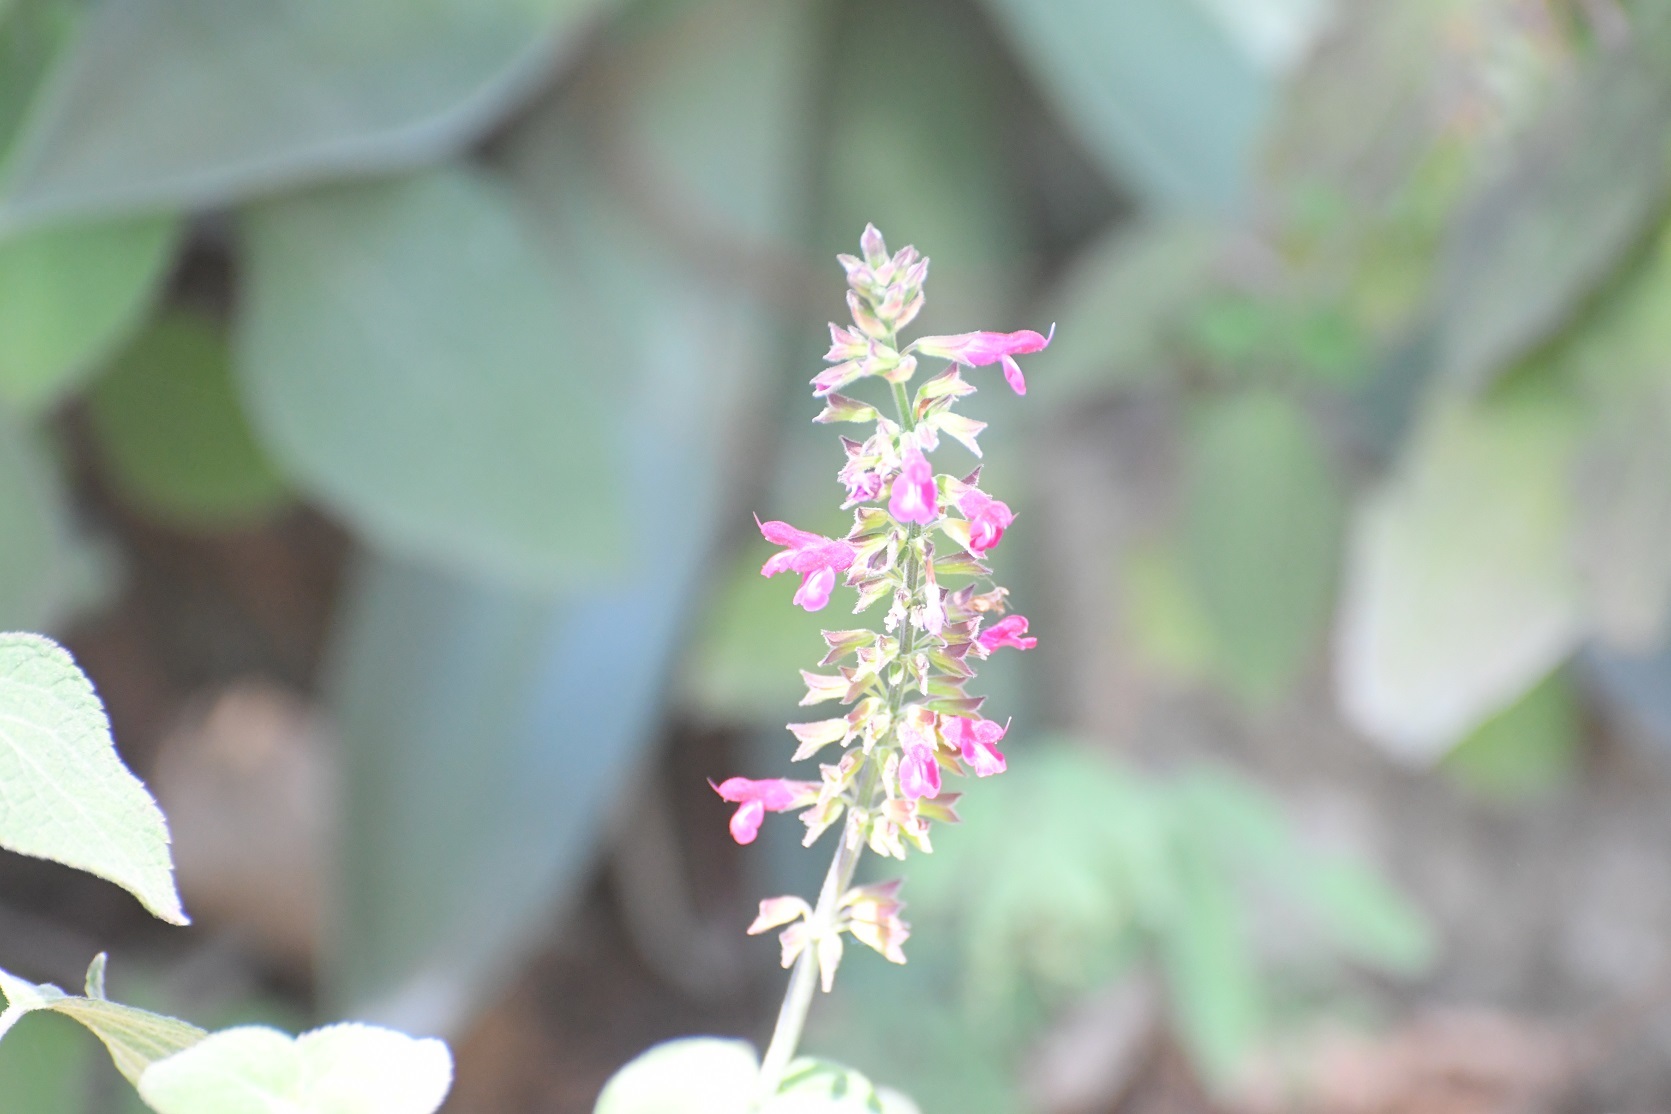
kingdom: Plantae
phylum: Tracheophyta
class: Magnoliopsida
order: Lamiales
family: Lamiaceae
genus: Salvia
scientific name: Salvia chiapensis
